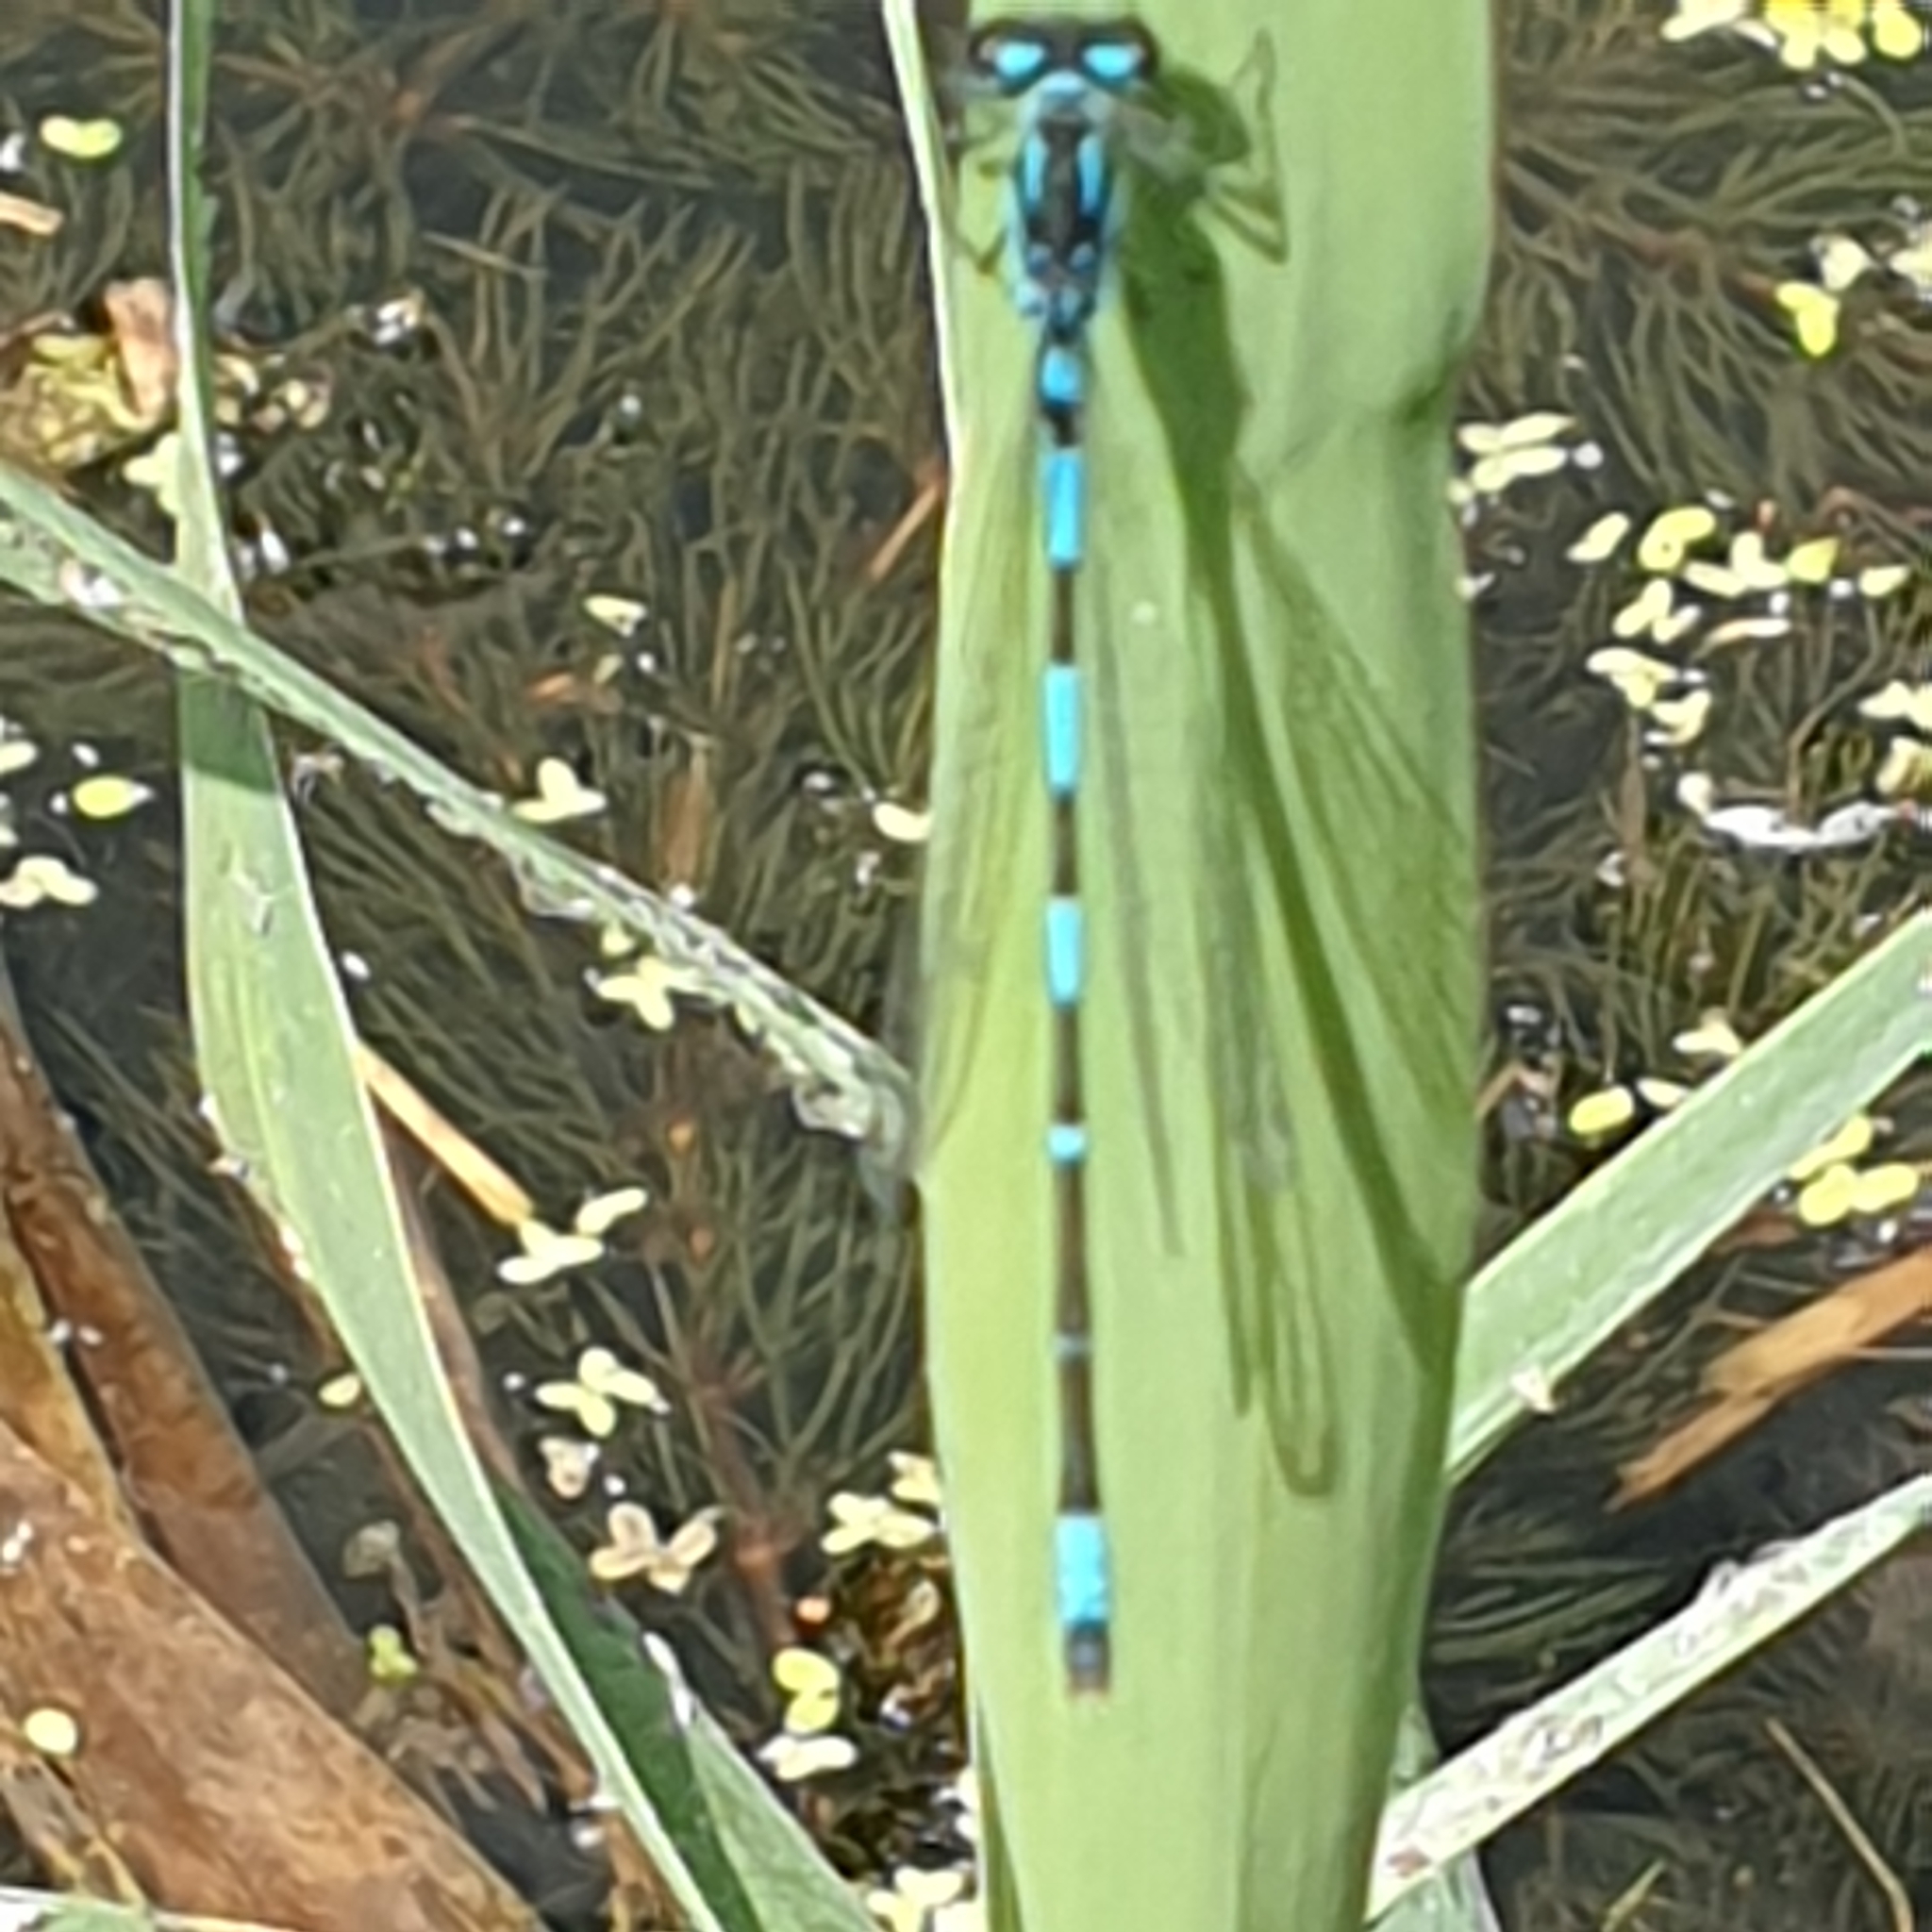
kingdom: Animalia
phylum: Arthropoda
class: Insecta
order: Odonata
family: Coenagrionidae
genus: Coenagrion
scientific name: Coenagrion pulchellum
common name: Variable bluet
